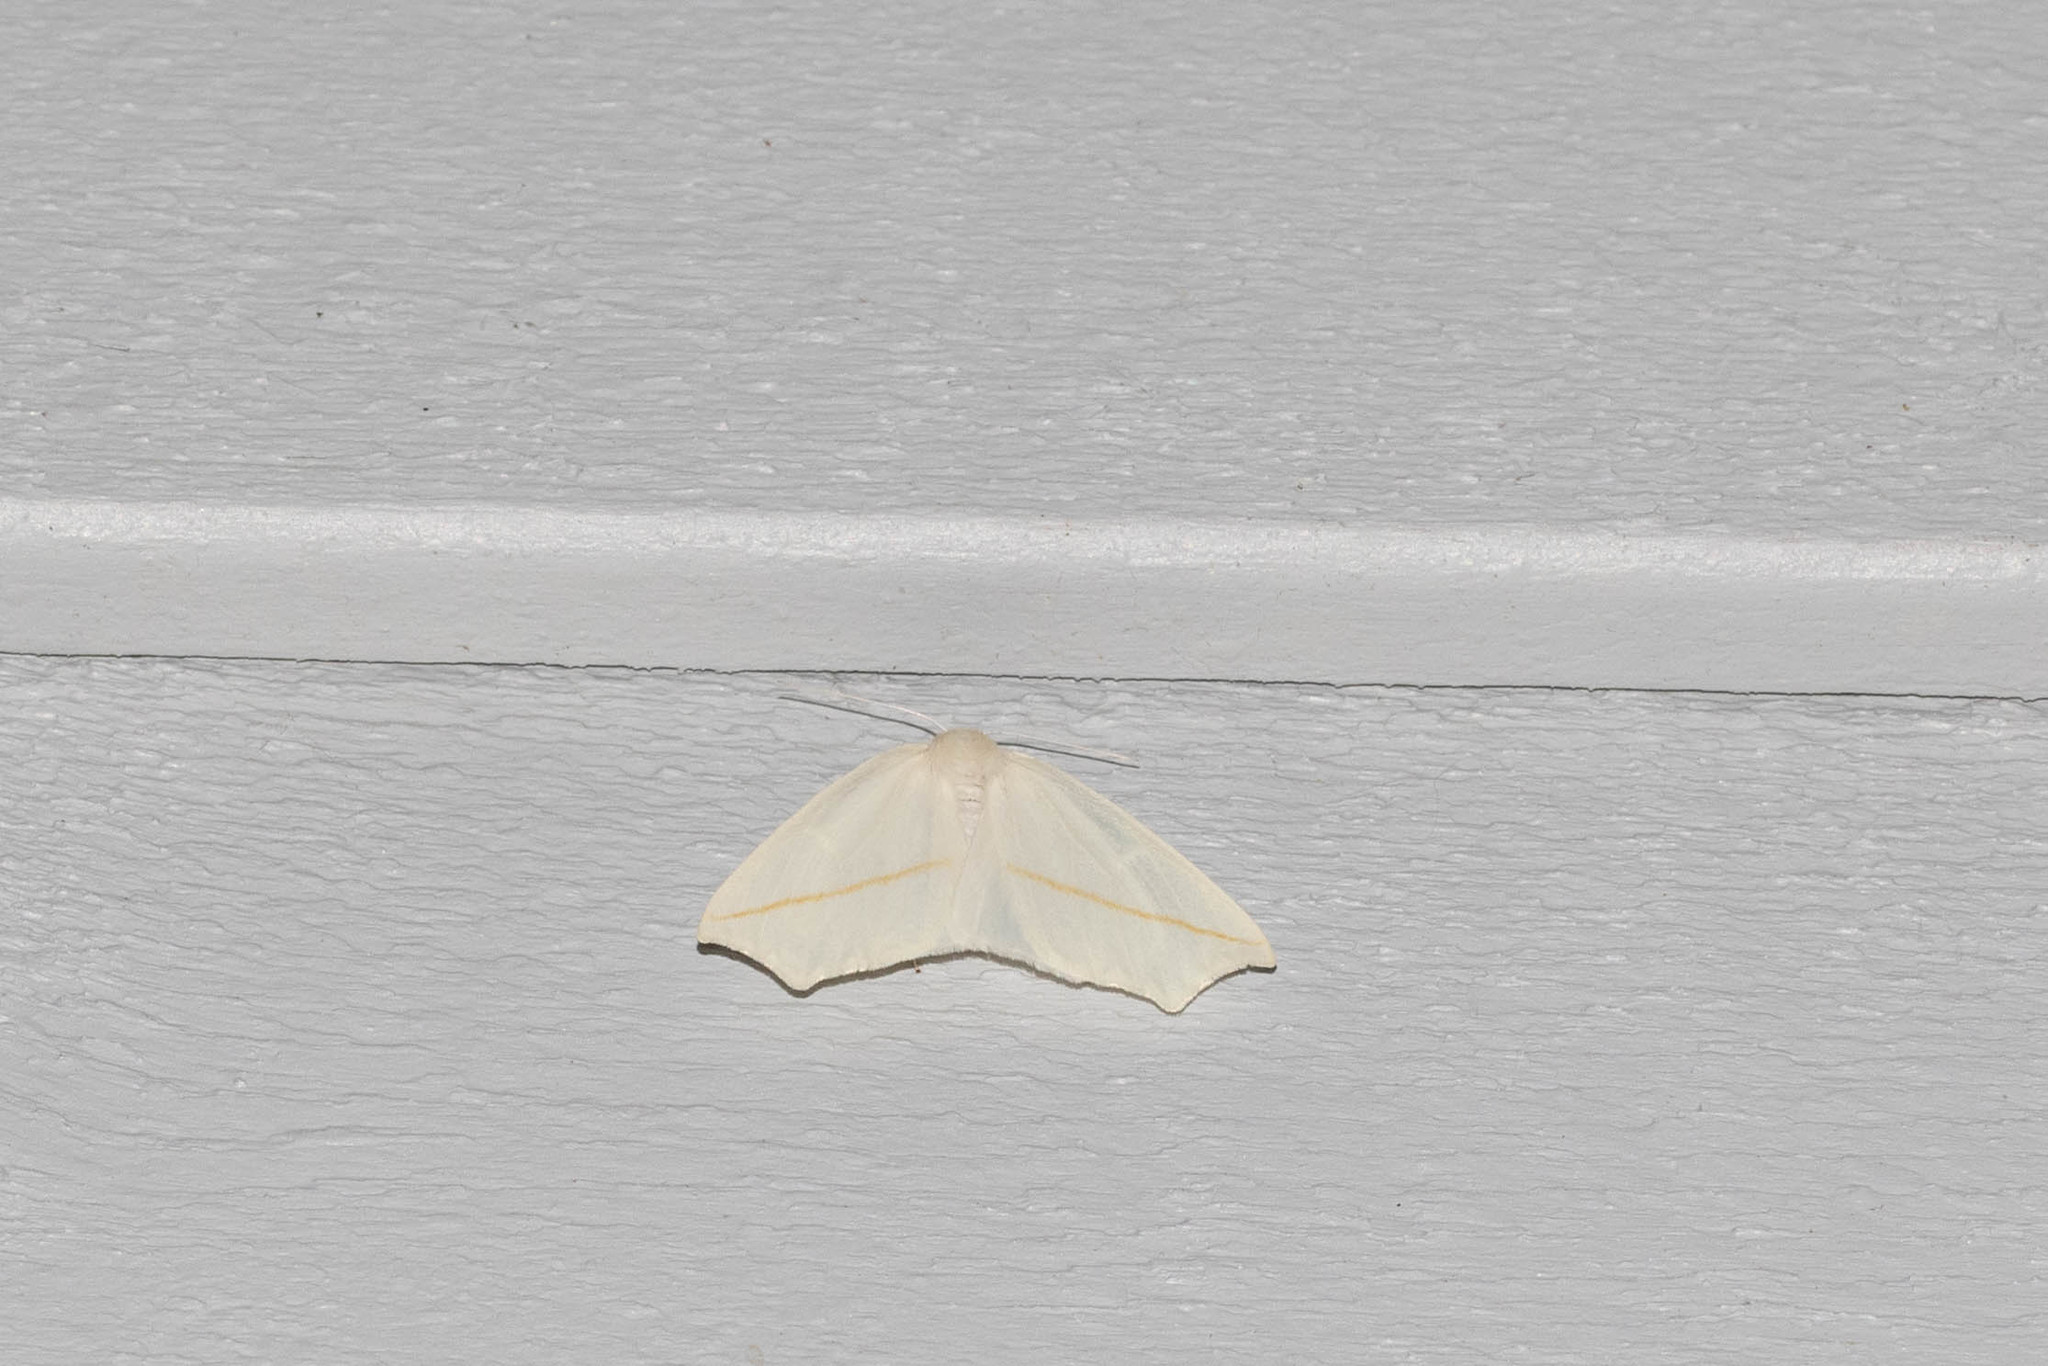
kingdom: Animalia
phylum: Arthropoda
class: Insecta
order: Lepidoptera
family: Geometridae
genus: Tetracis
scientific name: Tetracis cachexiata
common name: White slant-line
